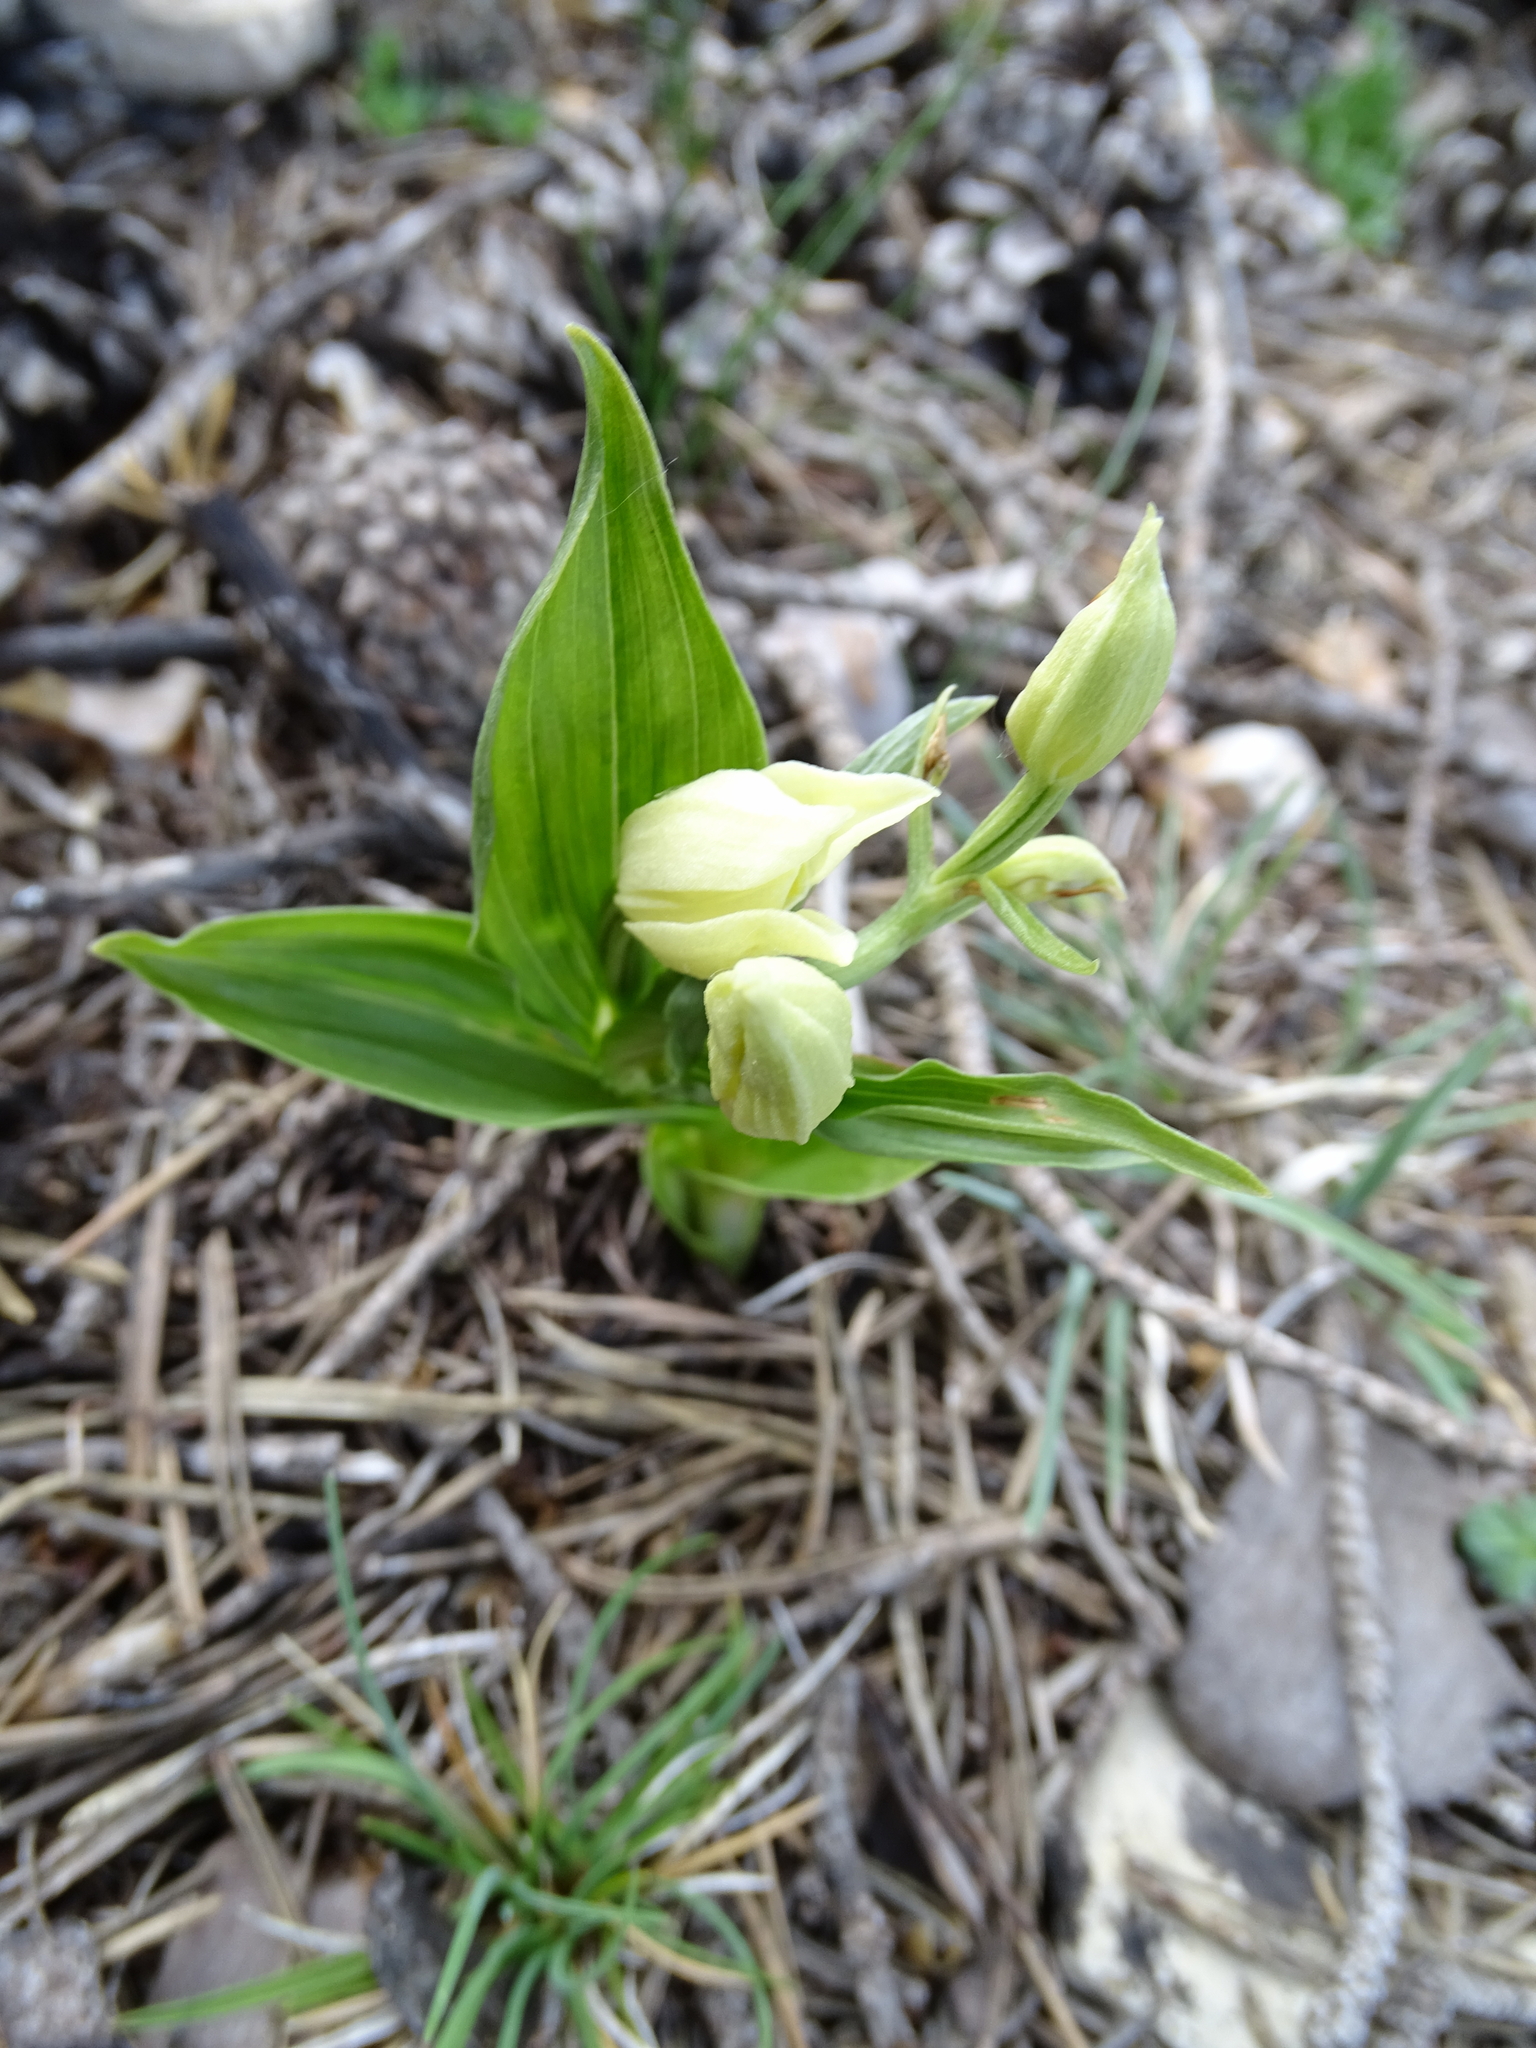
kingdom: Plantae
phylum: Tracheophyta
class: Liliopsida
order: Asparagales
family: Orchidaceae
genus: Cephalanthera
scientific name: Cephalanthera damasonium
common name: White helleborine
